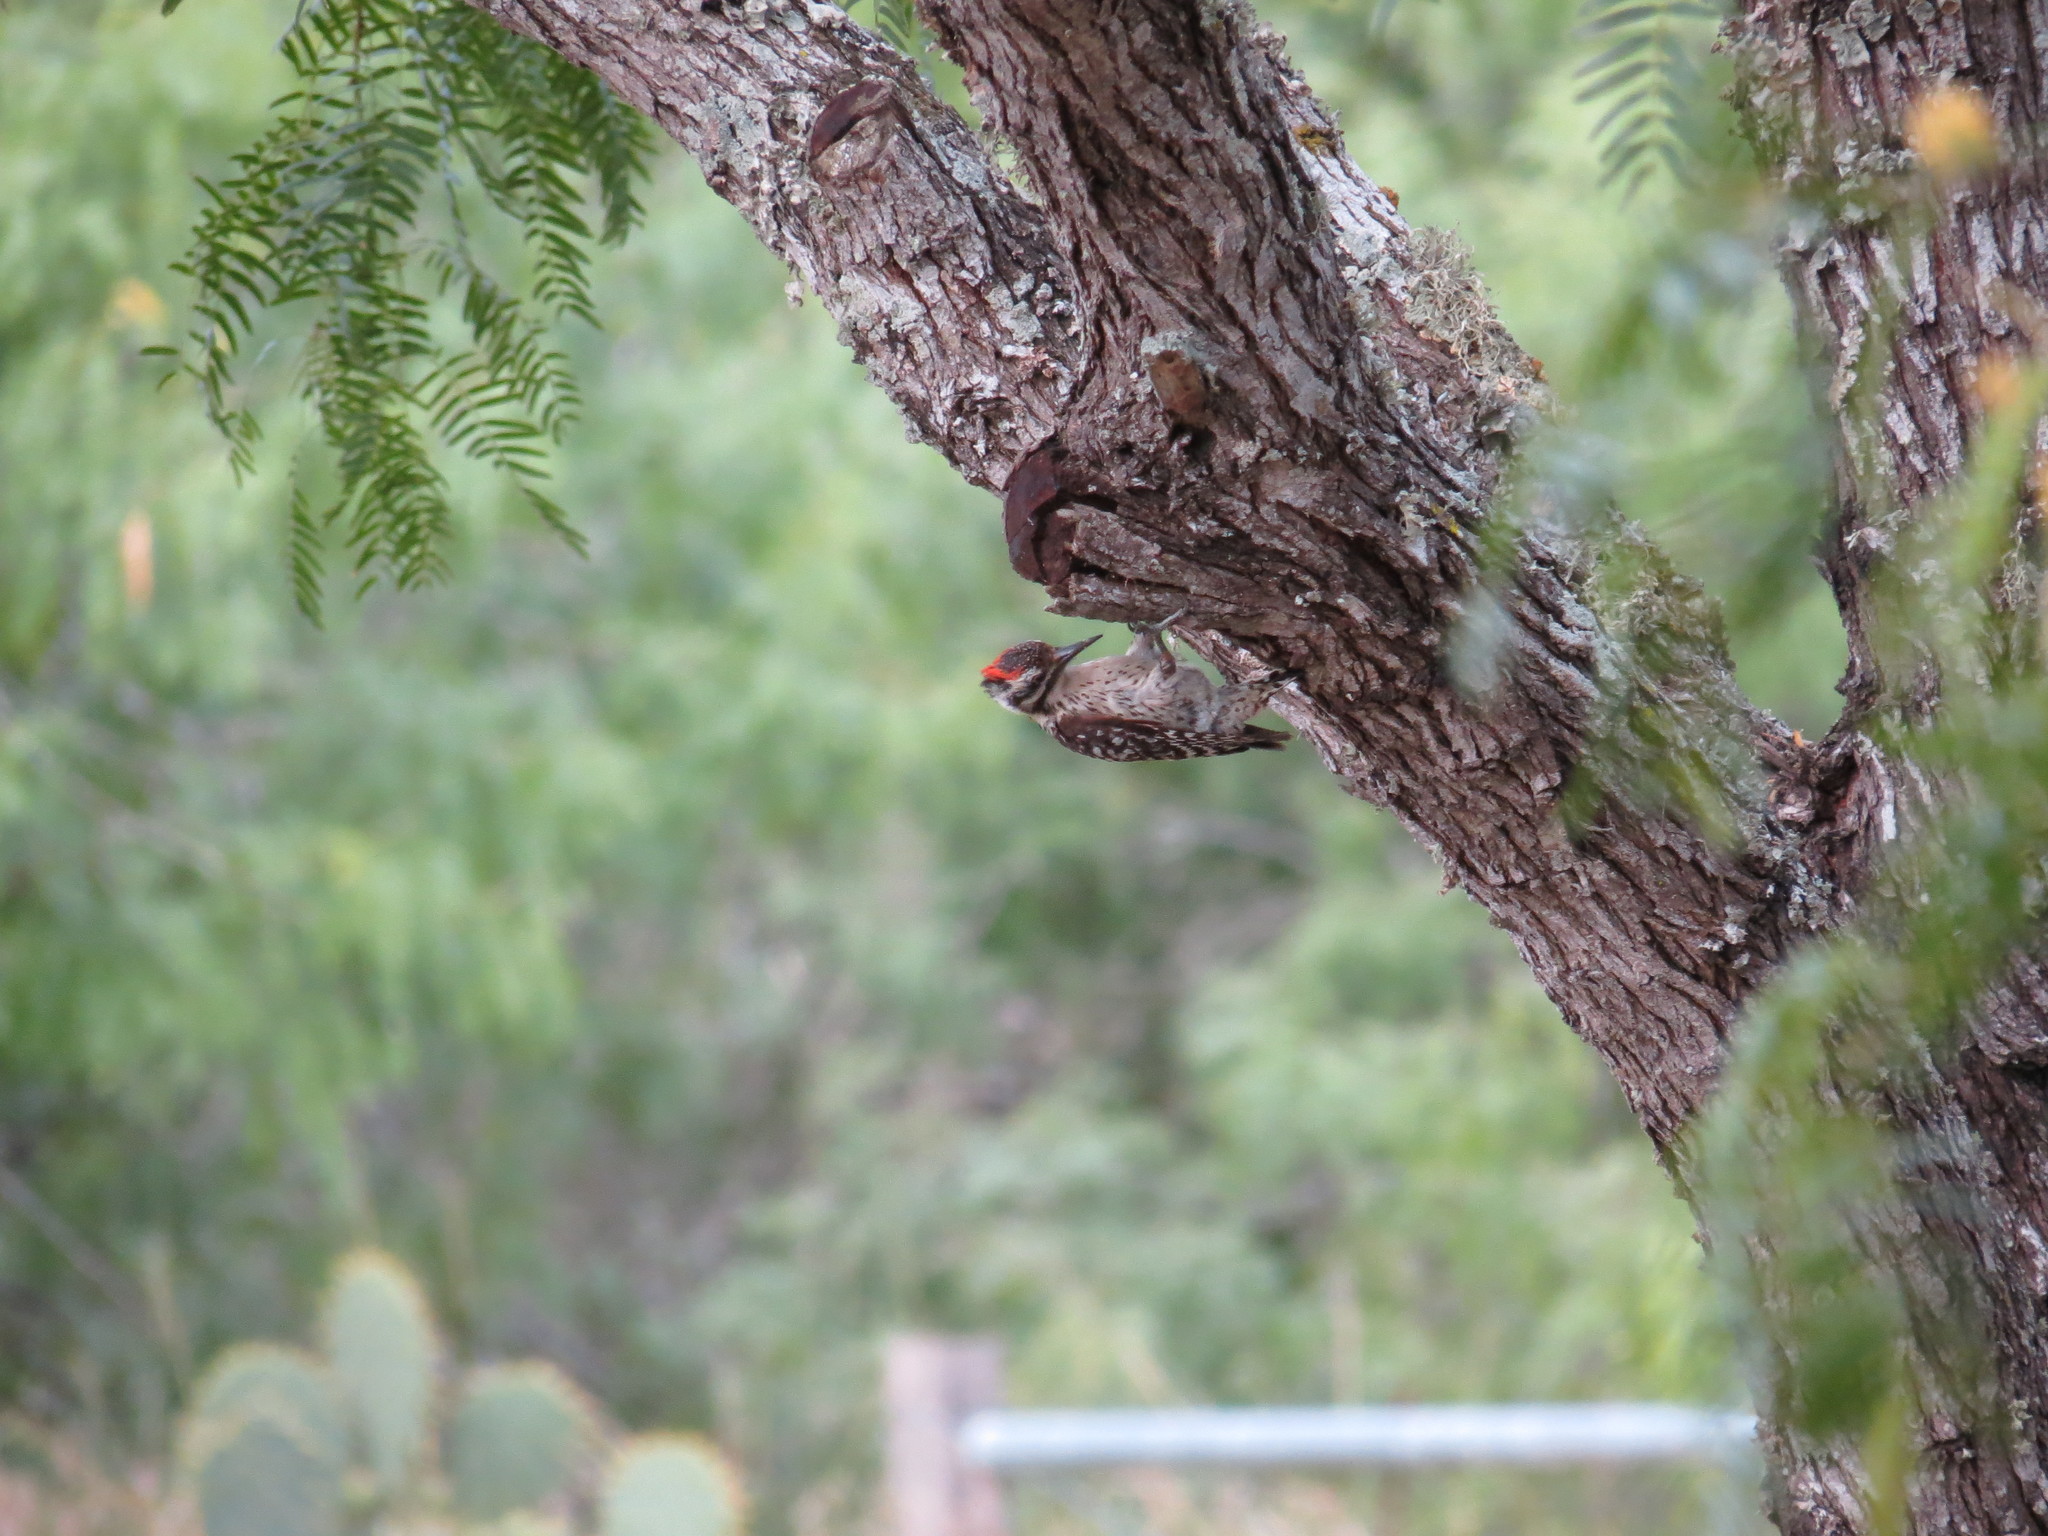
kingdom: Animalia
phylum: Chordata
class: Aves
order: Piciformes
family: Picidae
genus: Dryobates
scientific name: Dryobates scalaris
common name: Ladder-backed woodpecker
